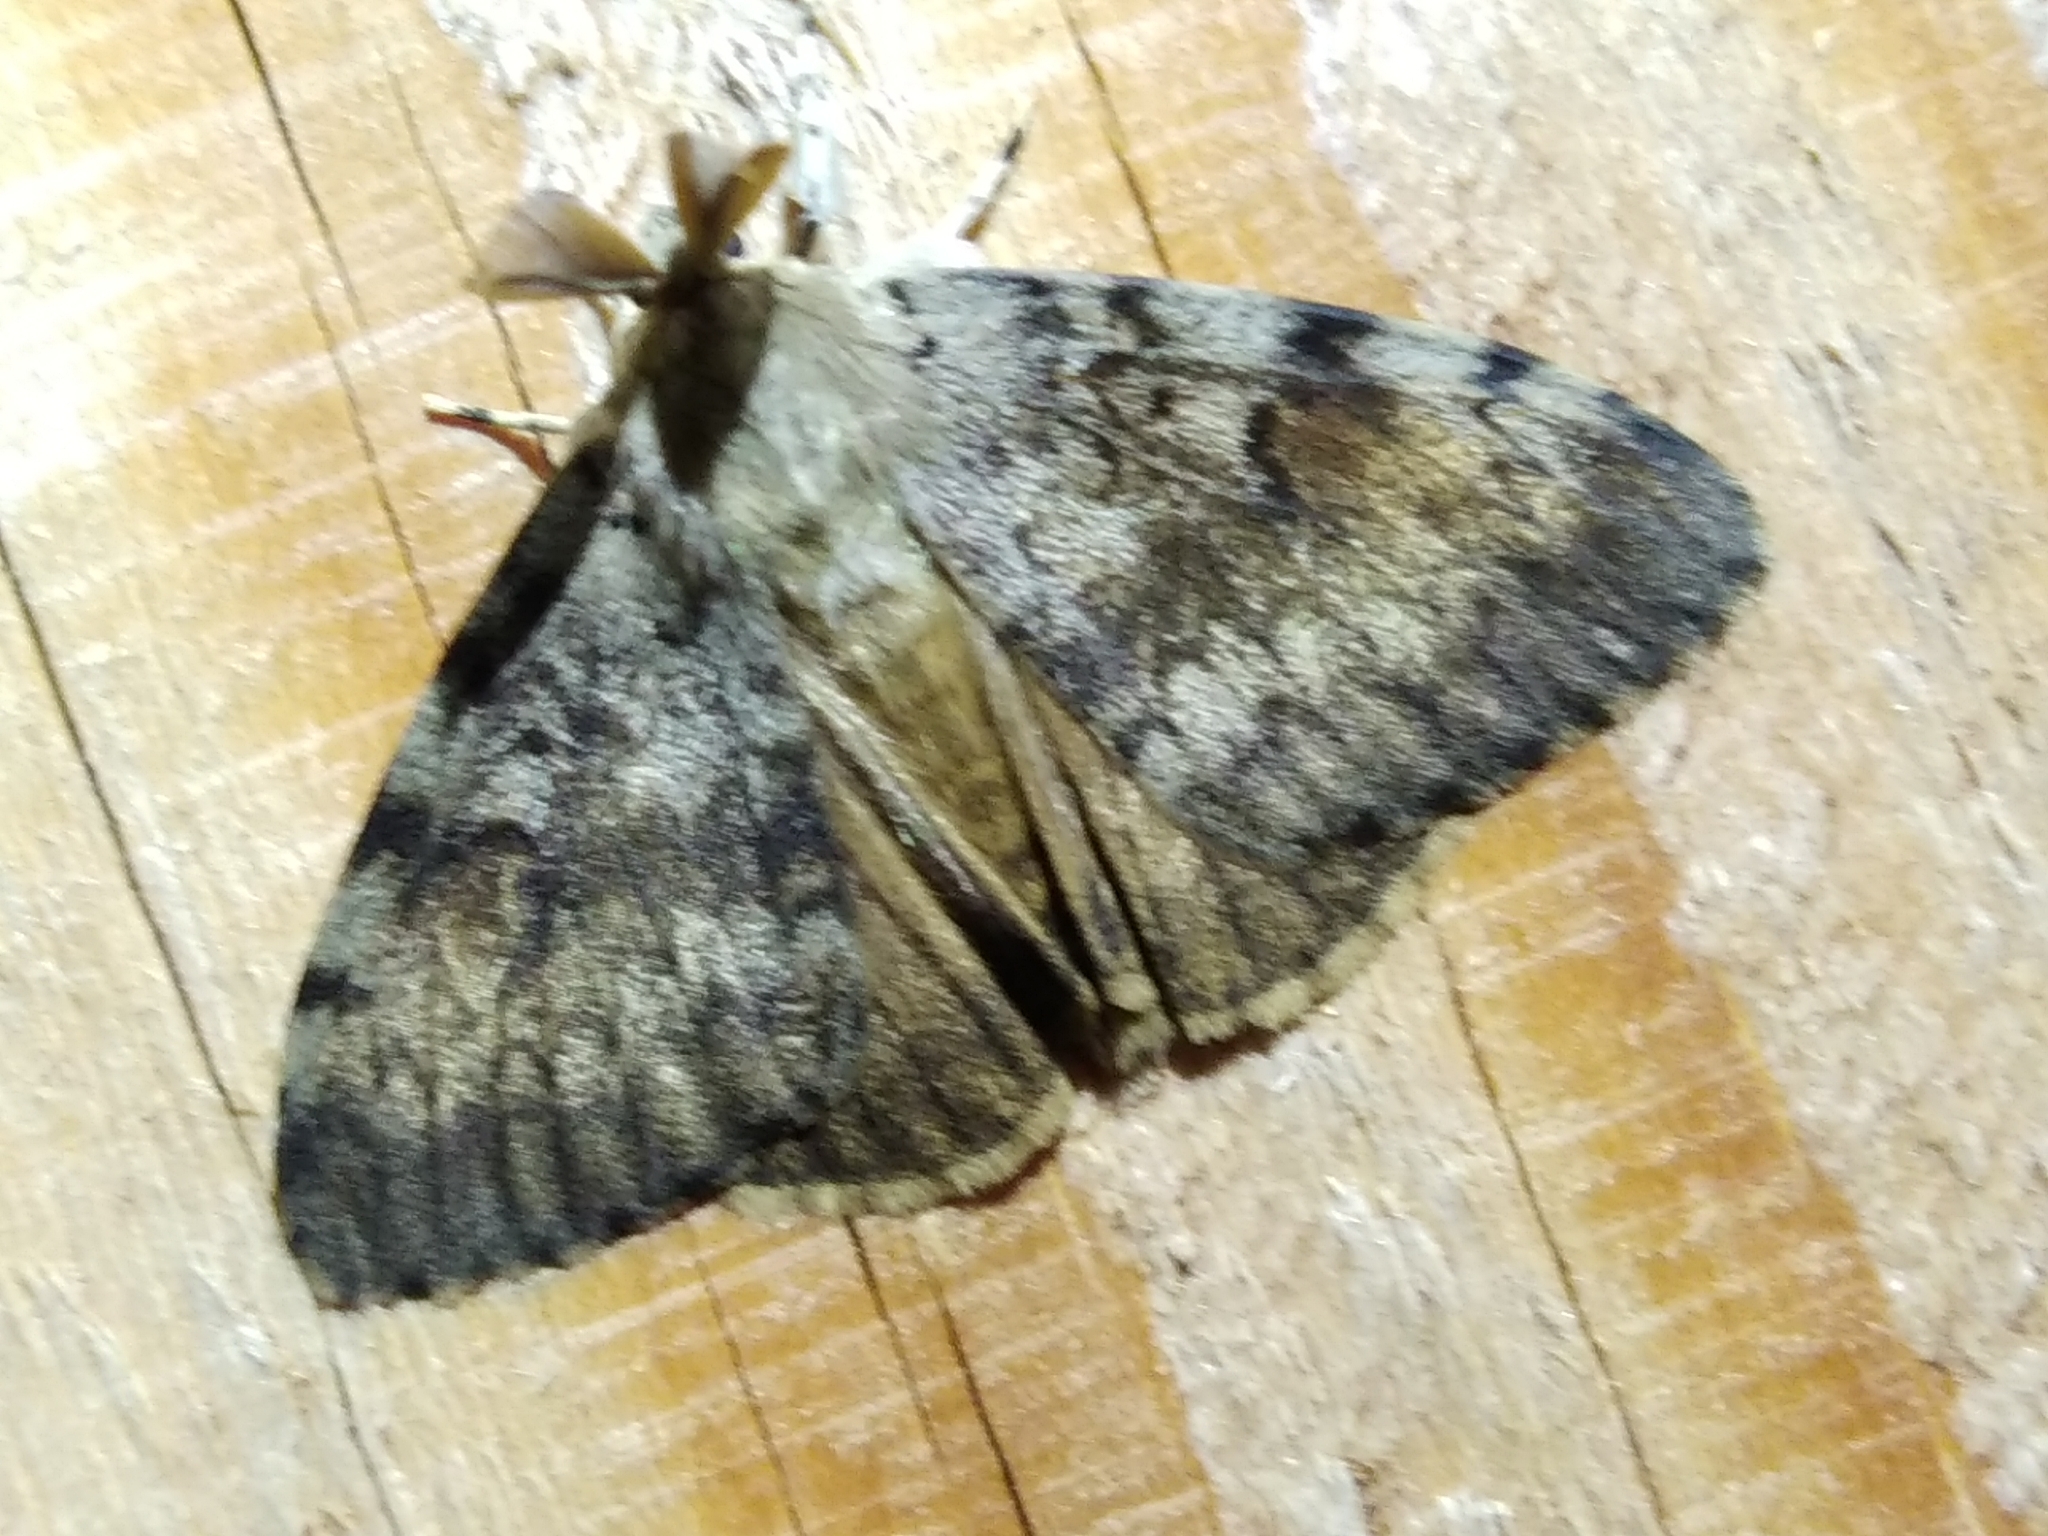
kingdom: Animalia
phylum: Arthropoda
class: Insecta
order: Lepidoptera
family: Erebidae
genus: Lymantria
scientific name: Lymantria dispar
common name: Gypsy moth
